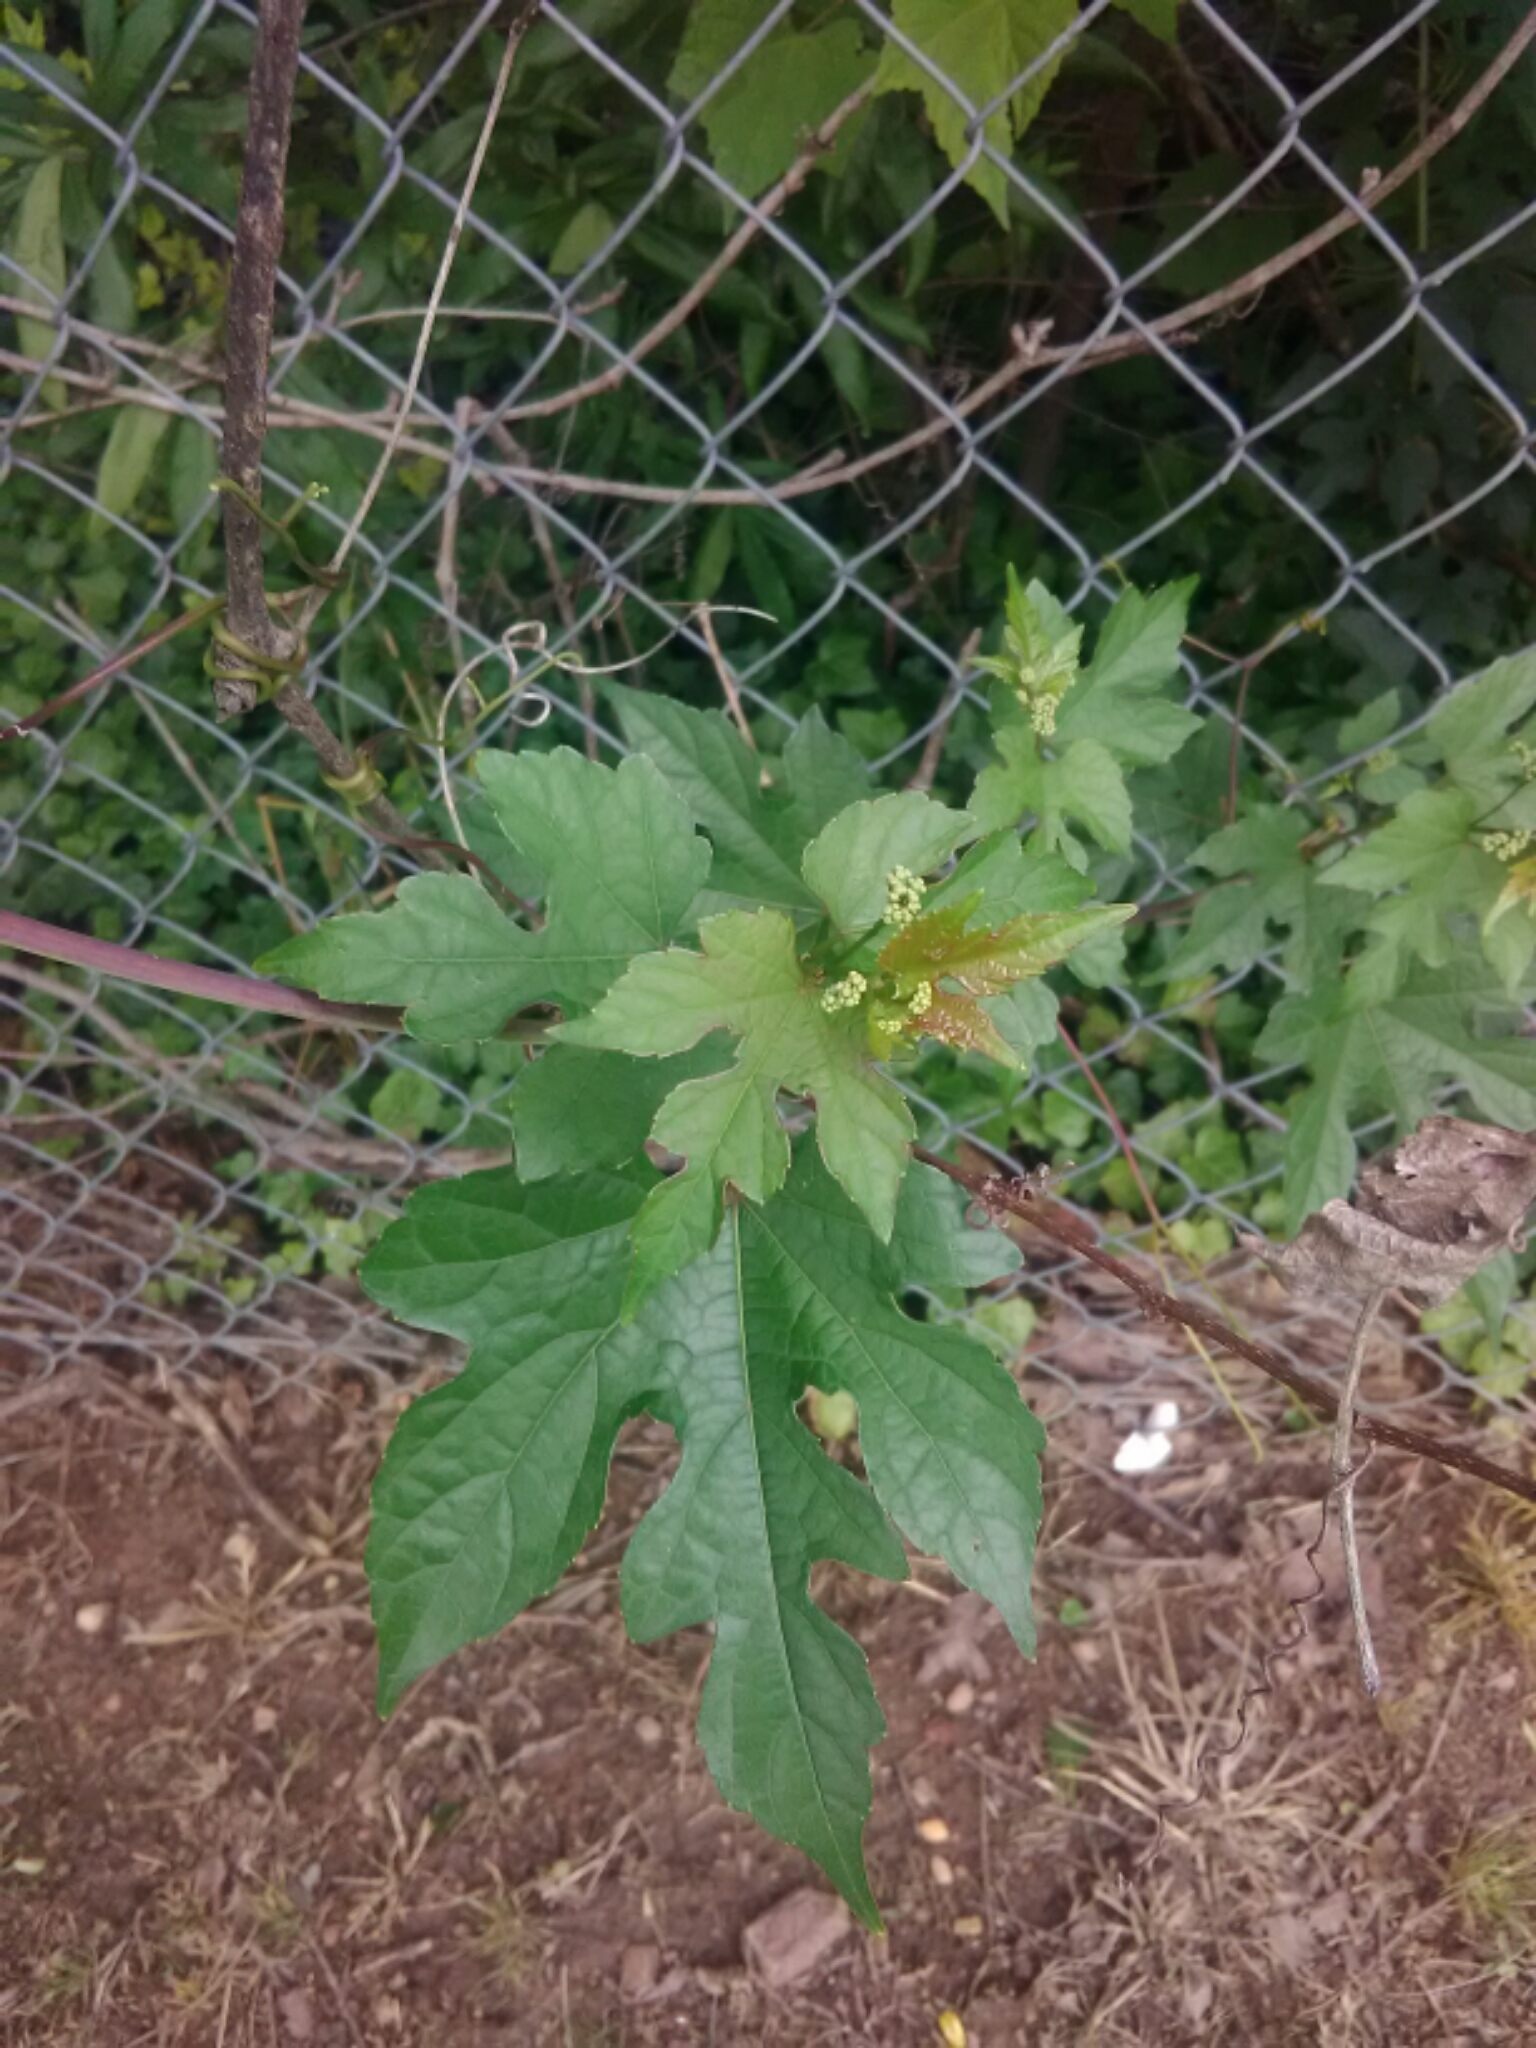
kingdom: Plantae
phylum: Tracheophyta
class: Magnoliopsida
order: Vitales
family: Vitaceae
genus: Ampelopsis
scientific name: Ampelopsis glandulosa
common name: Amur peppervine
